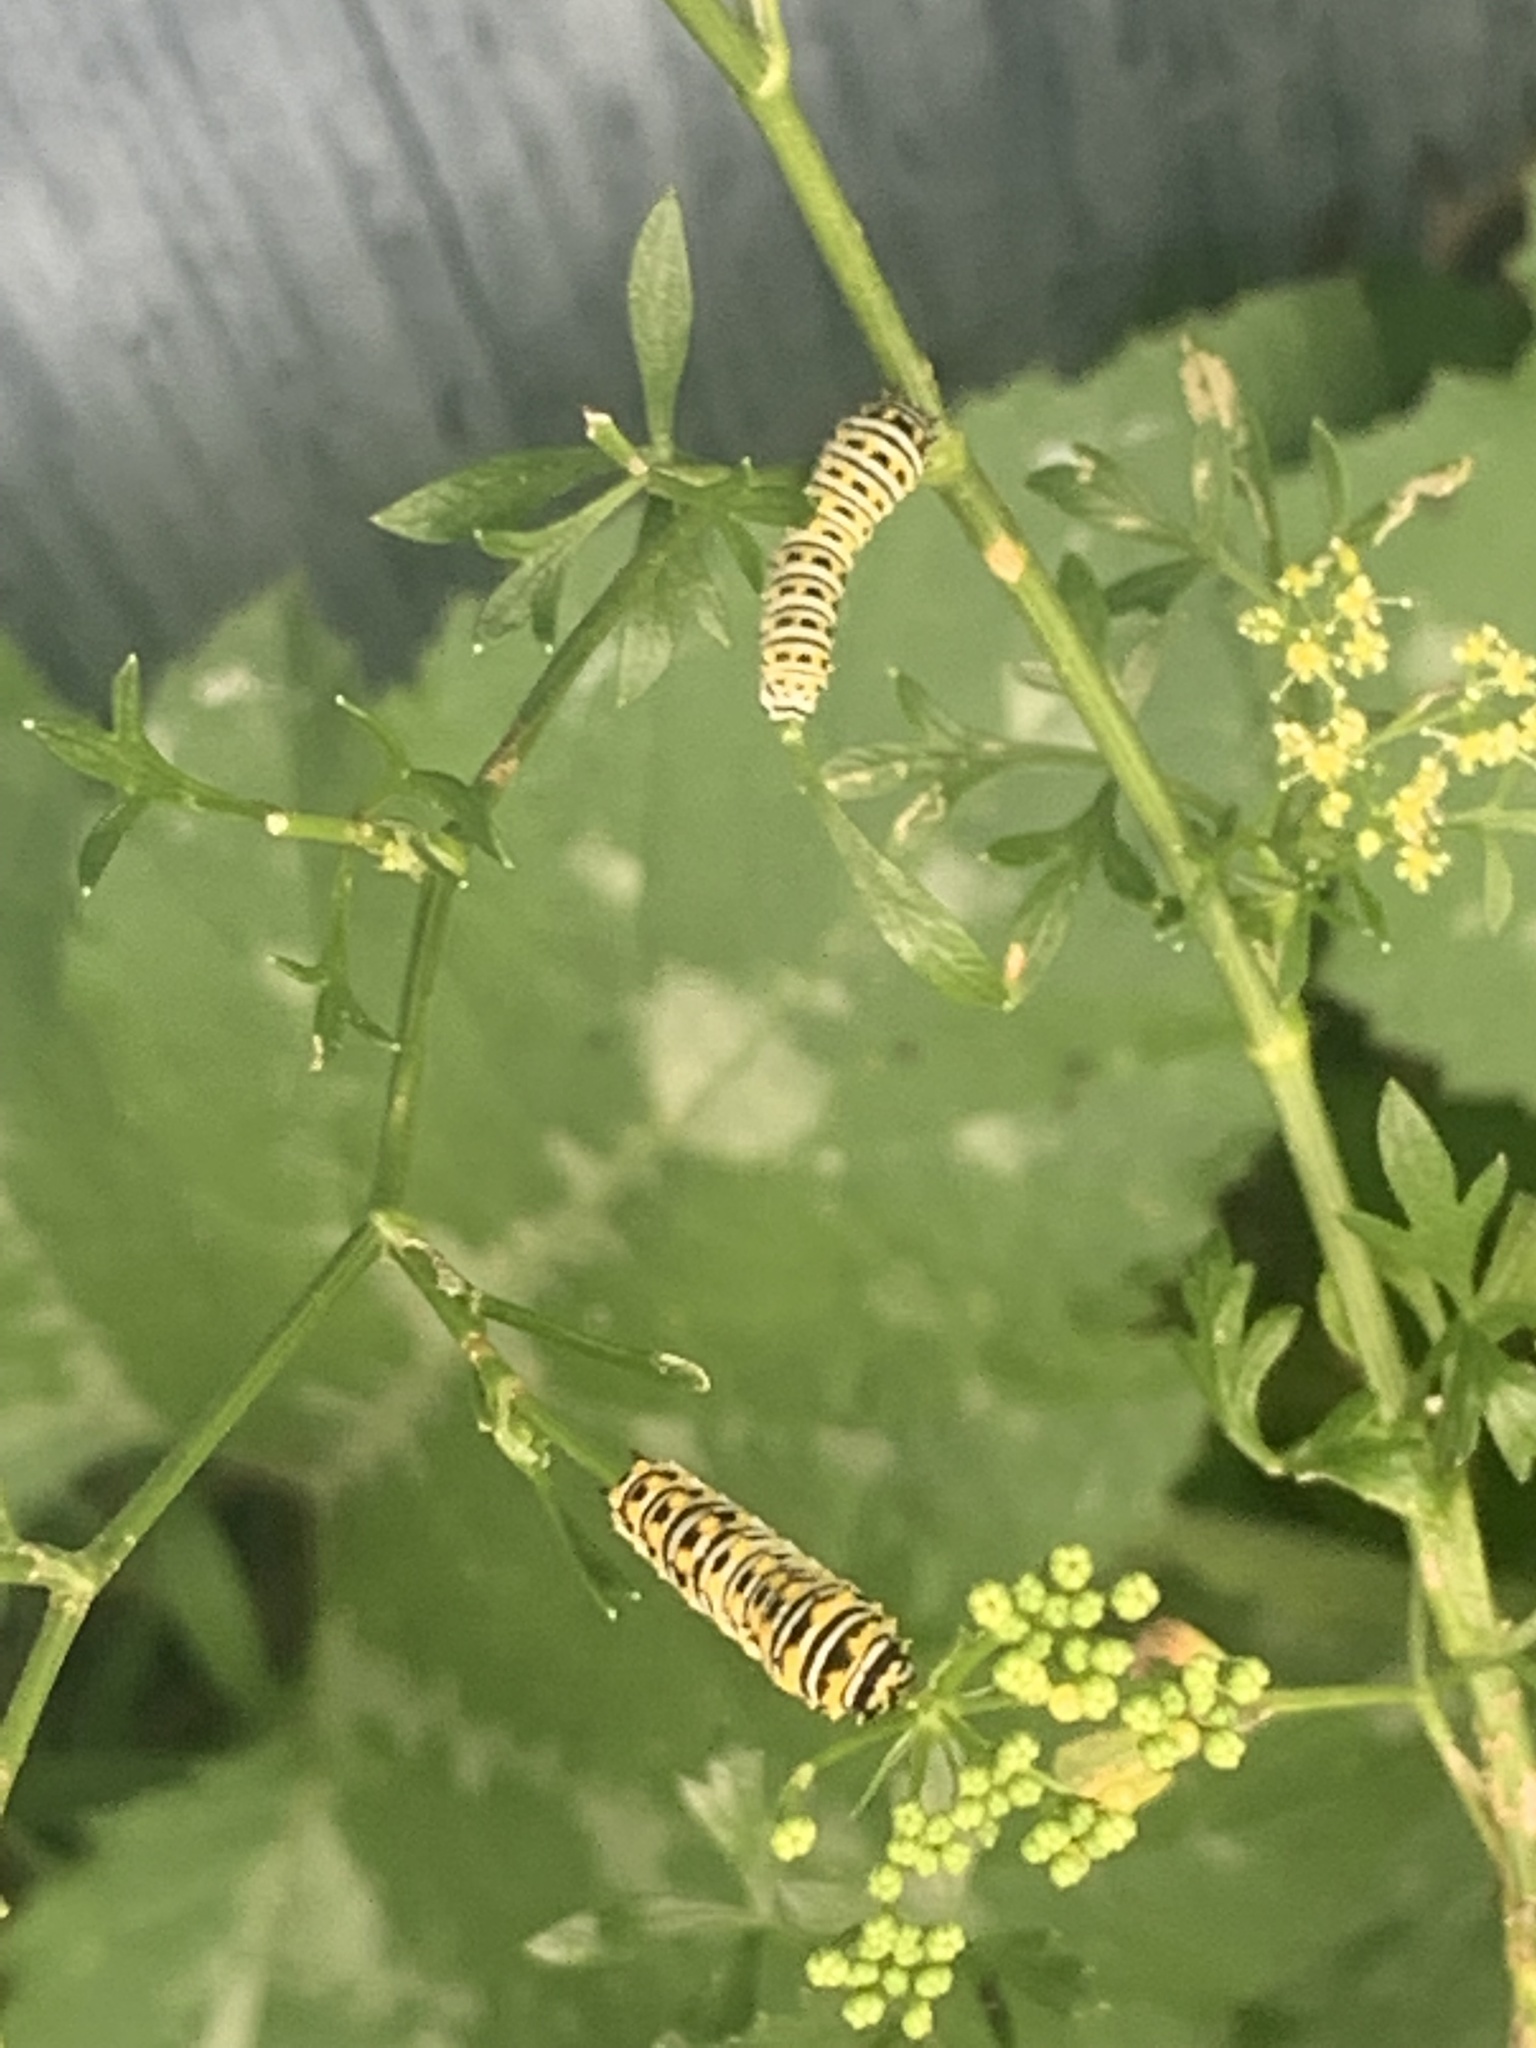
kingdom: Animalia
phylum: Arthropoda
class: Insecta
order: Lepidoptera
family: Papilionidae
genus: Papilio
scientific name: Papilio polyxenes
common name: Black swallowtail
